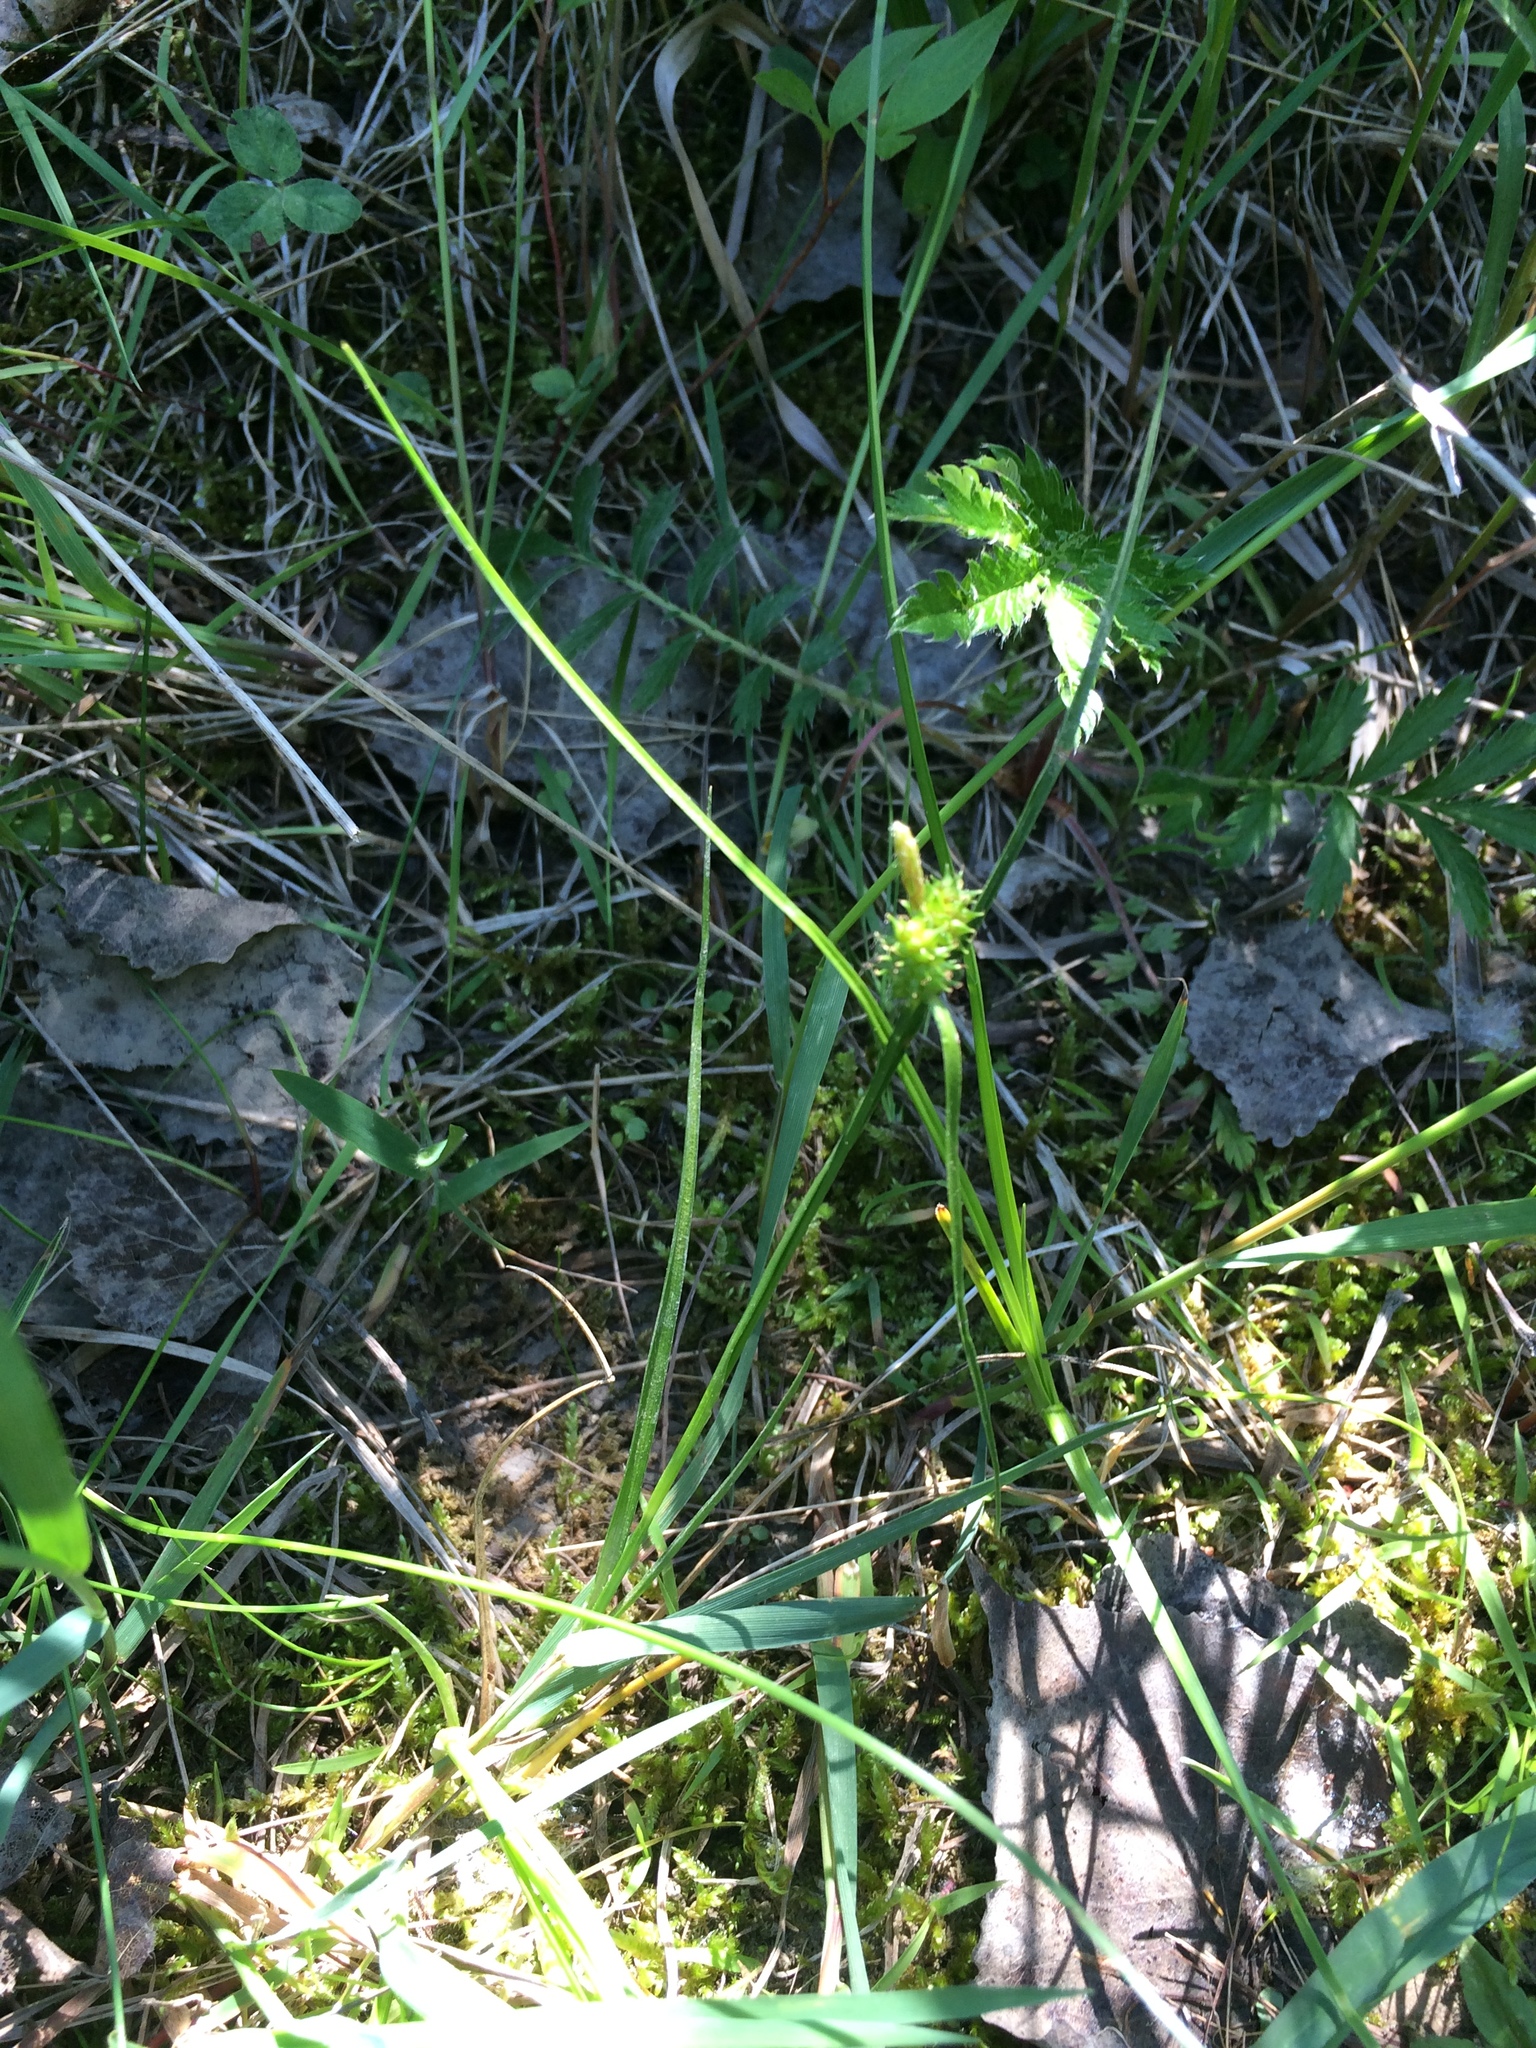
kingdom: Plantae
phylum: Tracheophyta
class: Liliopsida
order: Poales
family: Cyperaceae
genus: Carex
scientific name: Carex
